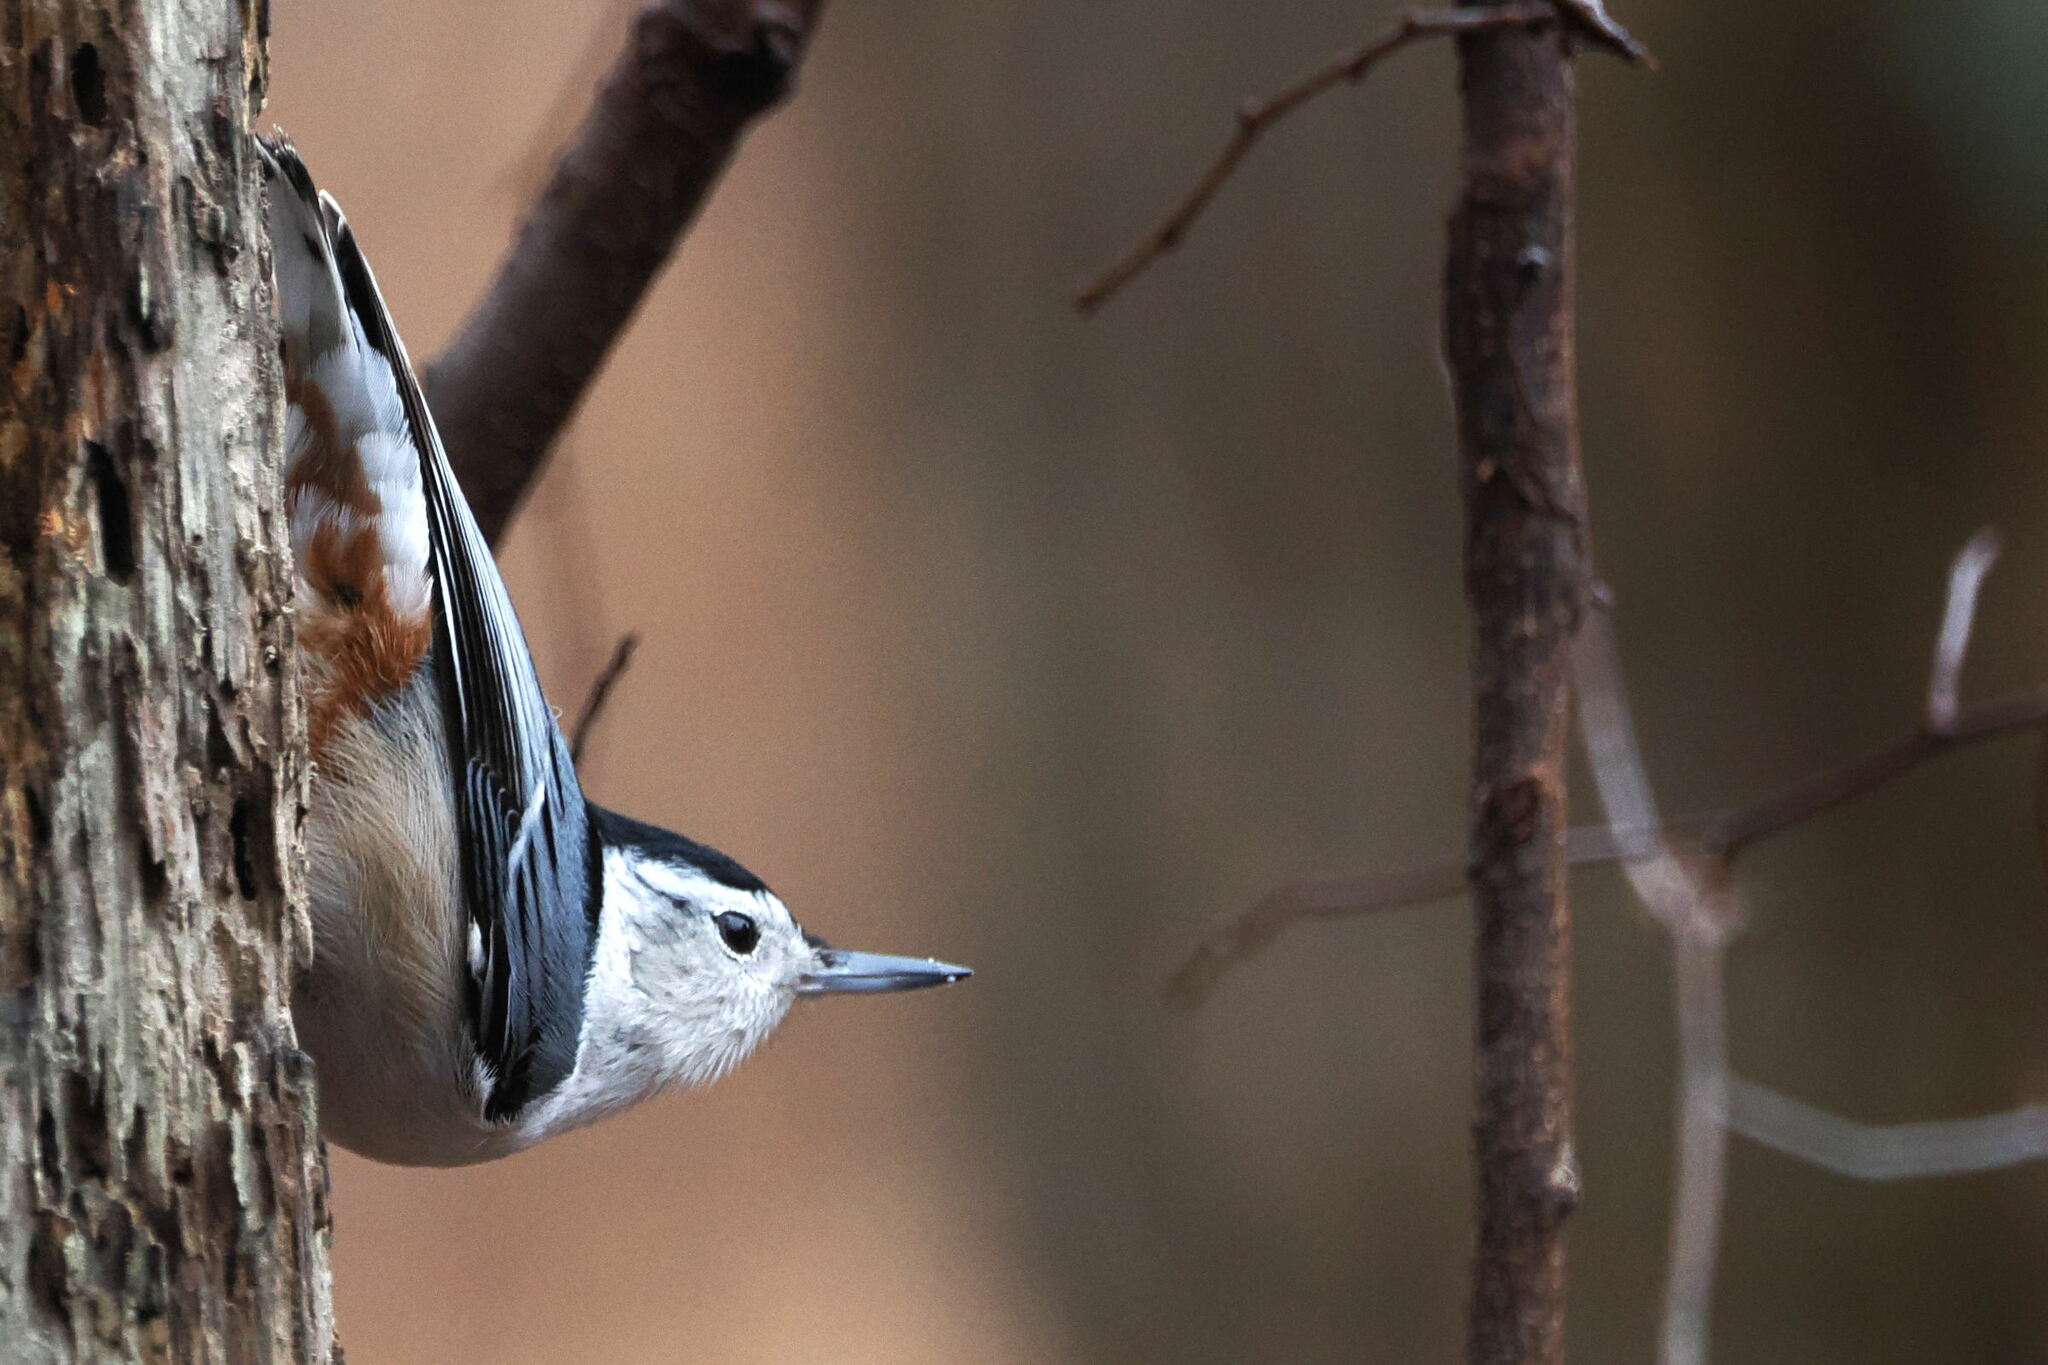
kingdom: Animalia
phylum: Chordata
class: Aves
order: Passeriformes
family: Sittidae
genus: Sitta
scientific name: Sitta carolinensis
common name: White-breasted nuthatch
